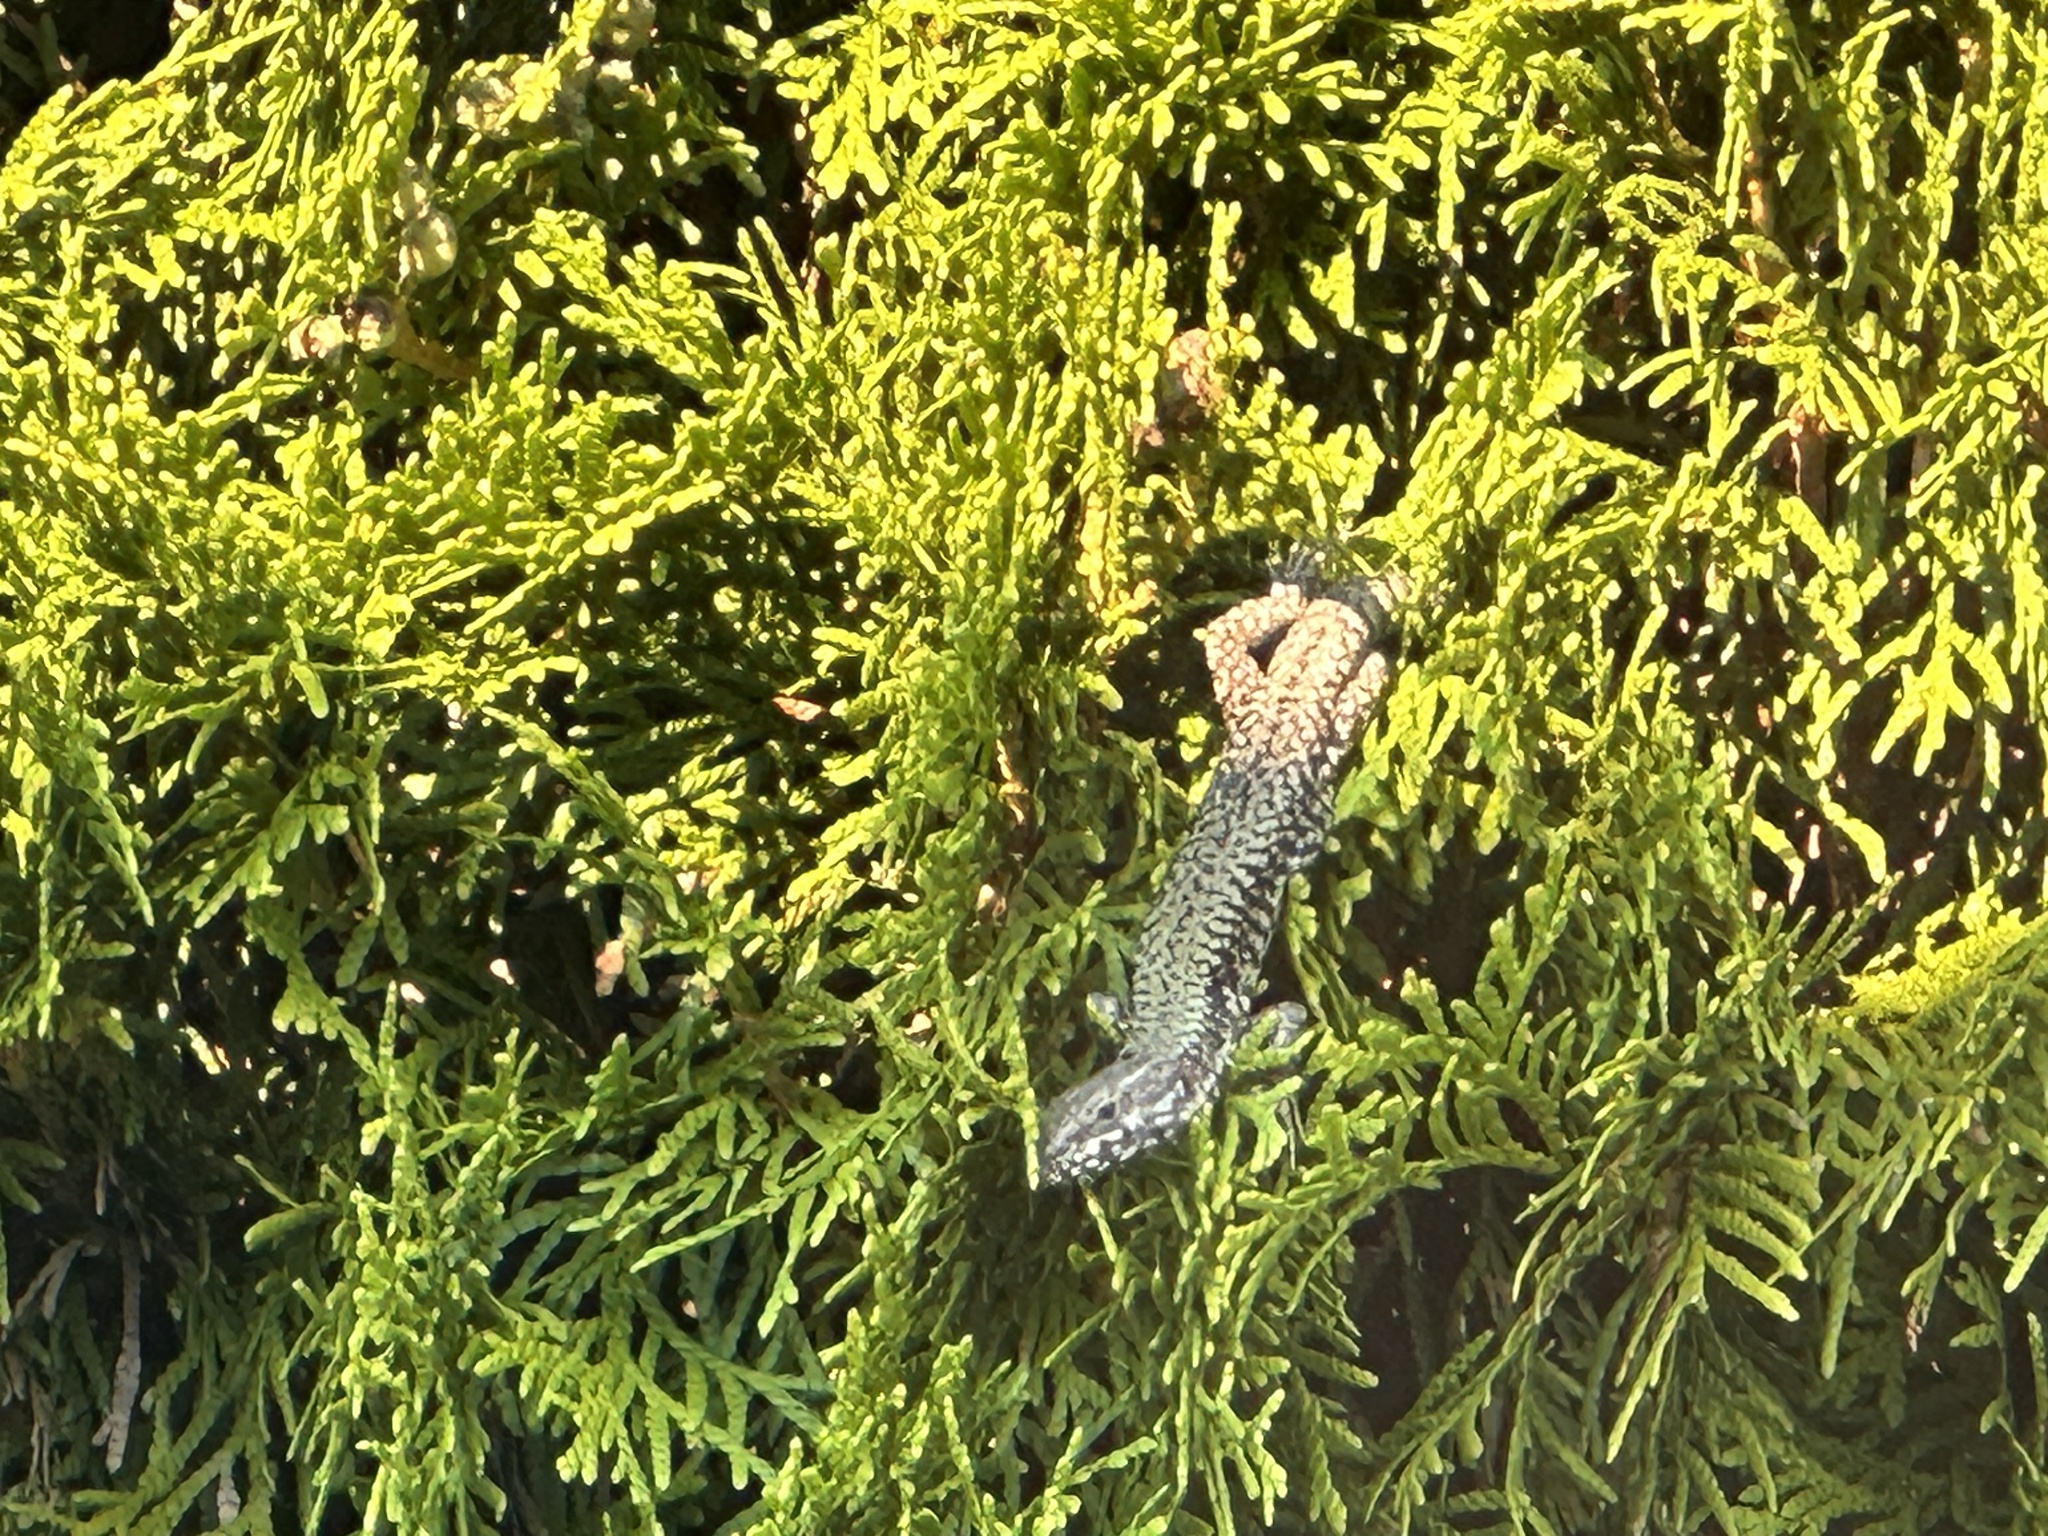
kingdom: Animalia
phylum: Chordata
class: Squamata
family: Lacertidae
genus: Podarcis
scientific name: Podarcis muralis
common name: Common wall lizard
